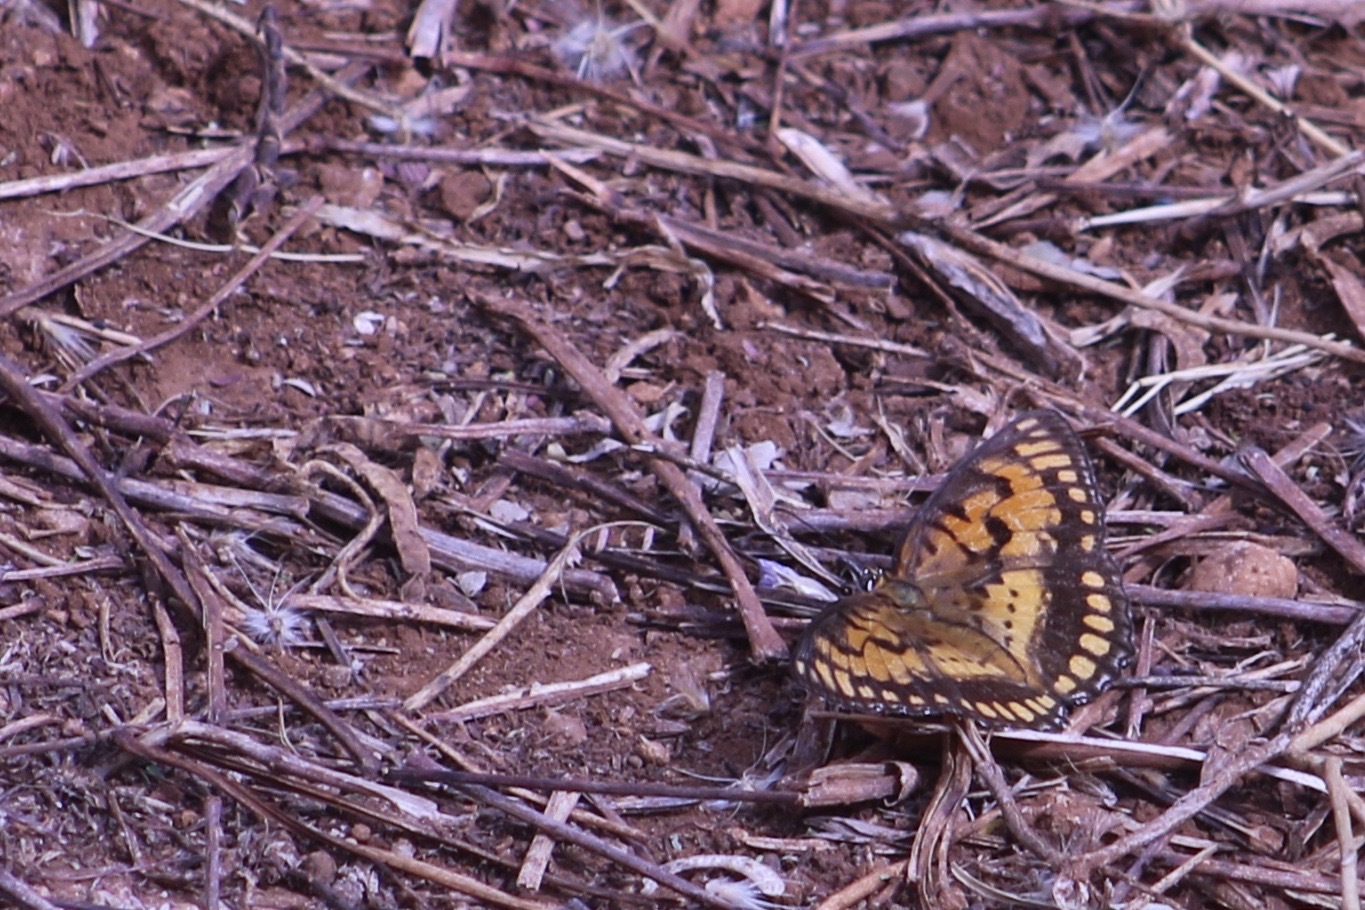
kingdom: Animalia
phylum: Arthropoda
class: Insecta
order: Lepidoptera
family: Nymphalidae
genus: Byblia
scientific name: Byblia ilithyia
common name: Spotted joker
